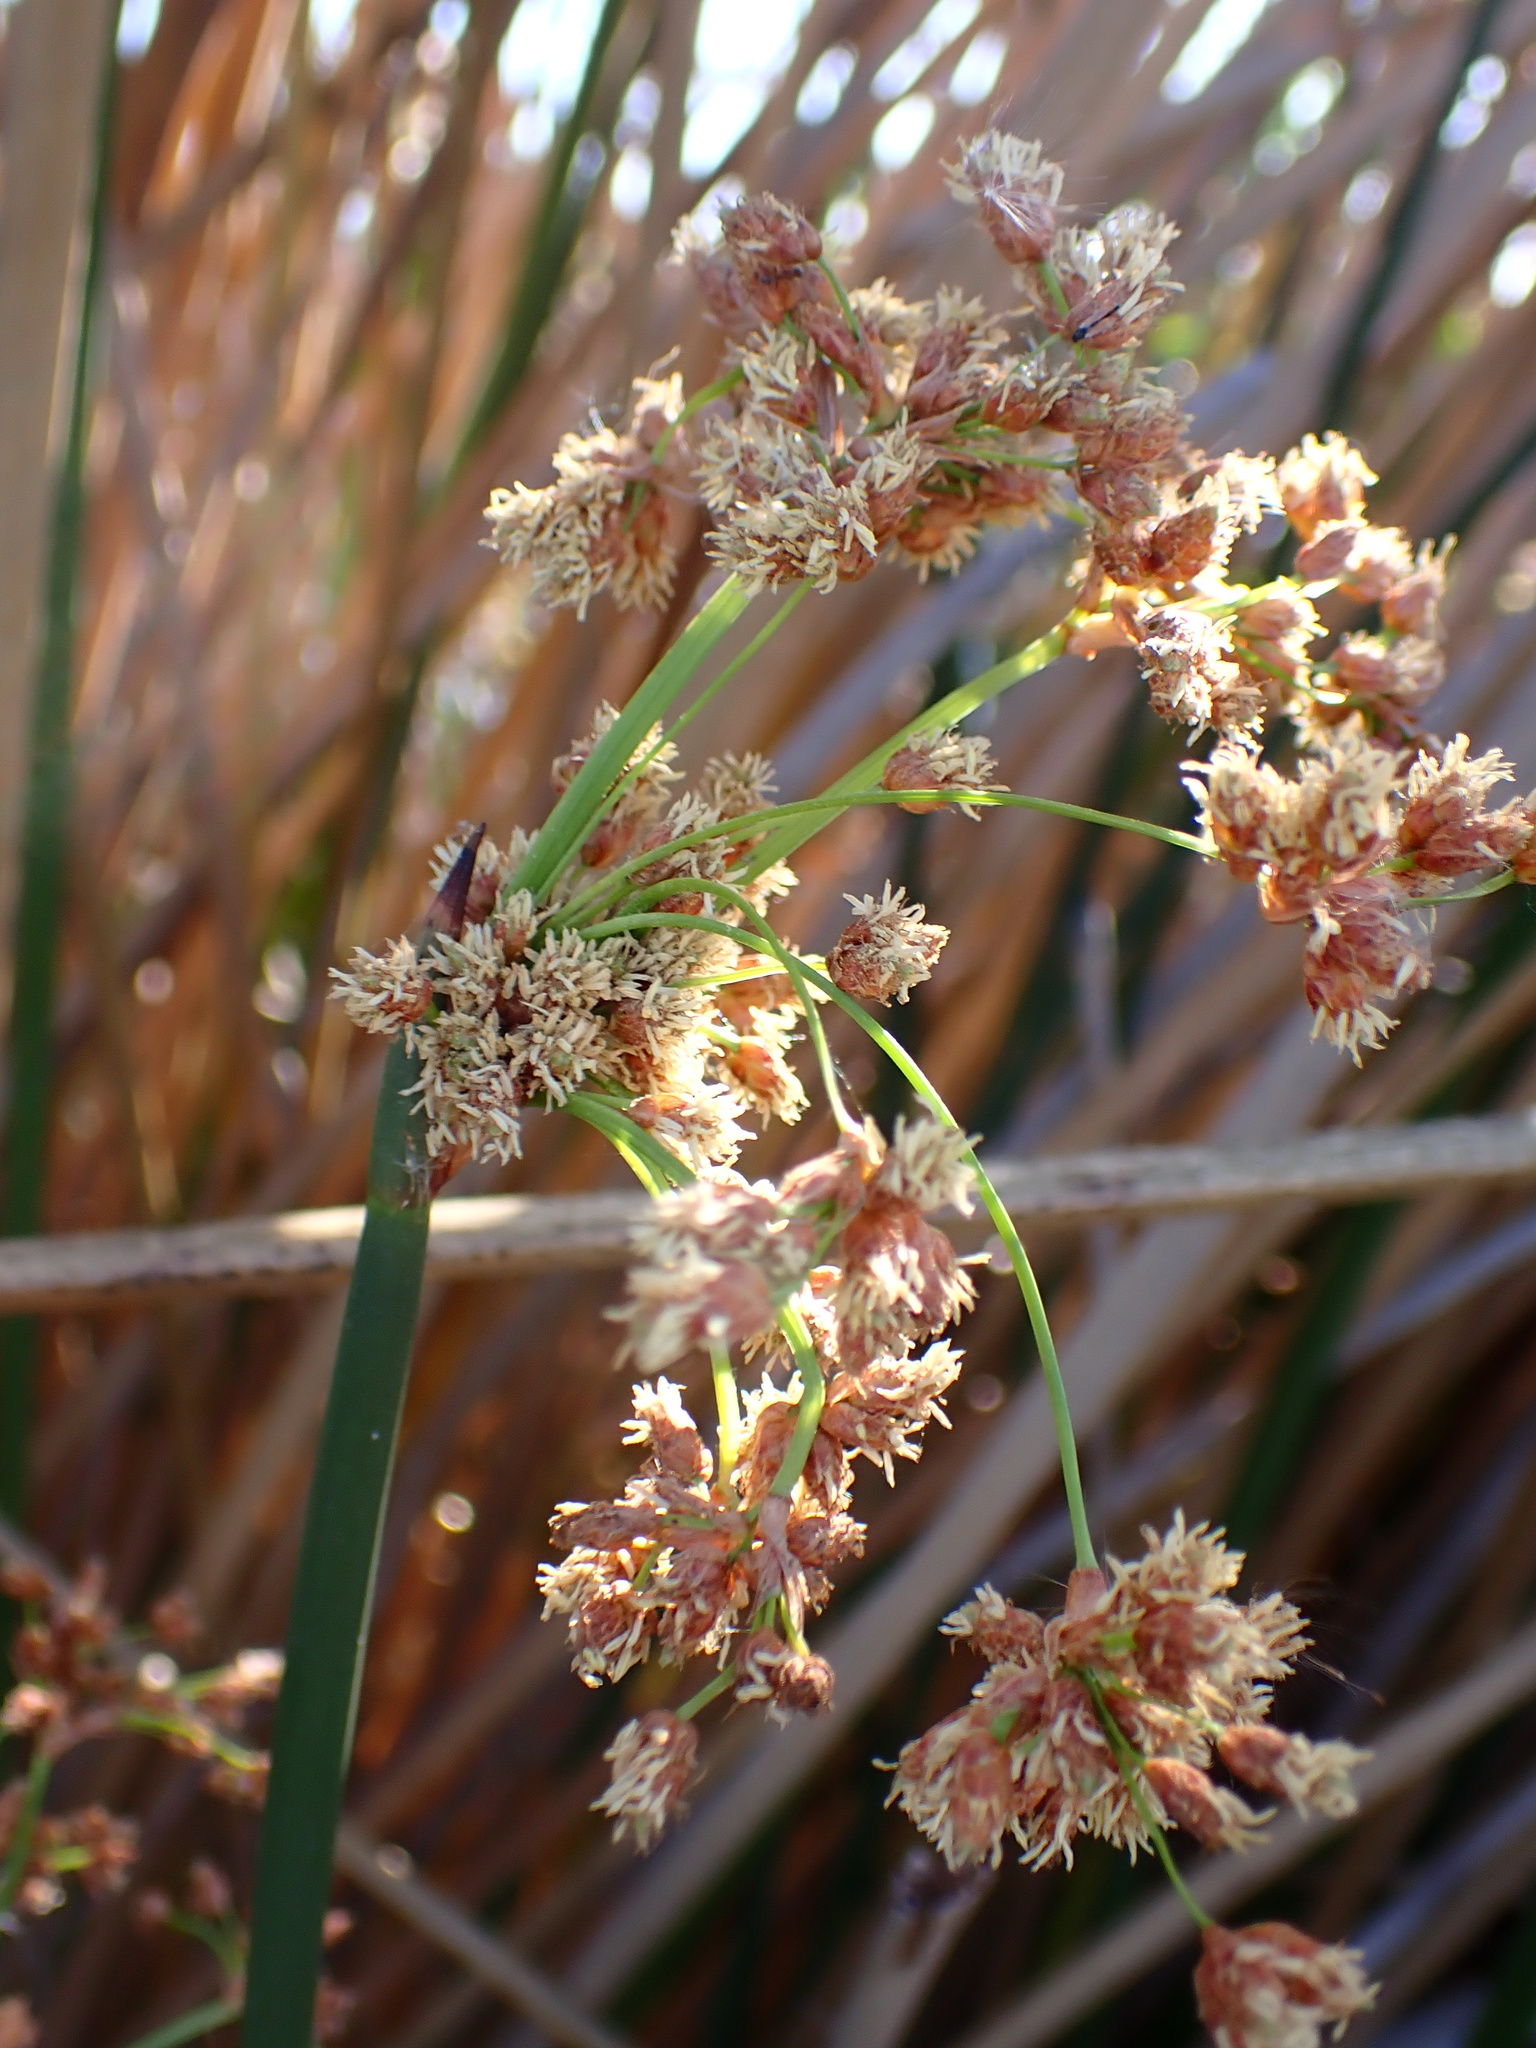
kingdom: Plantae
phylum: Tracheophyta
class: Liliopsida
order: Poales
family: Cyperaceae
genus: Schoenoplectus
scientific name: Schoenoplectus californicus
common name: California bulrush
